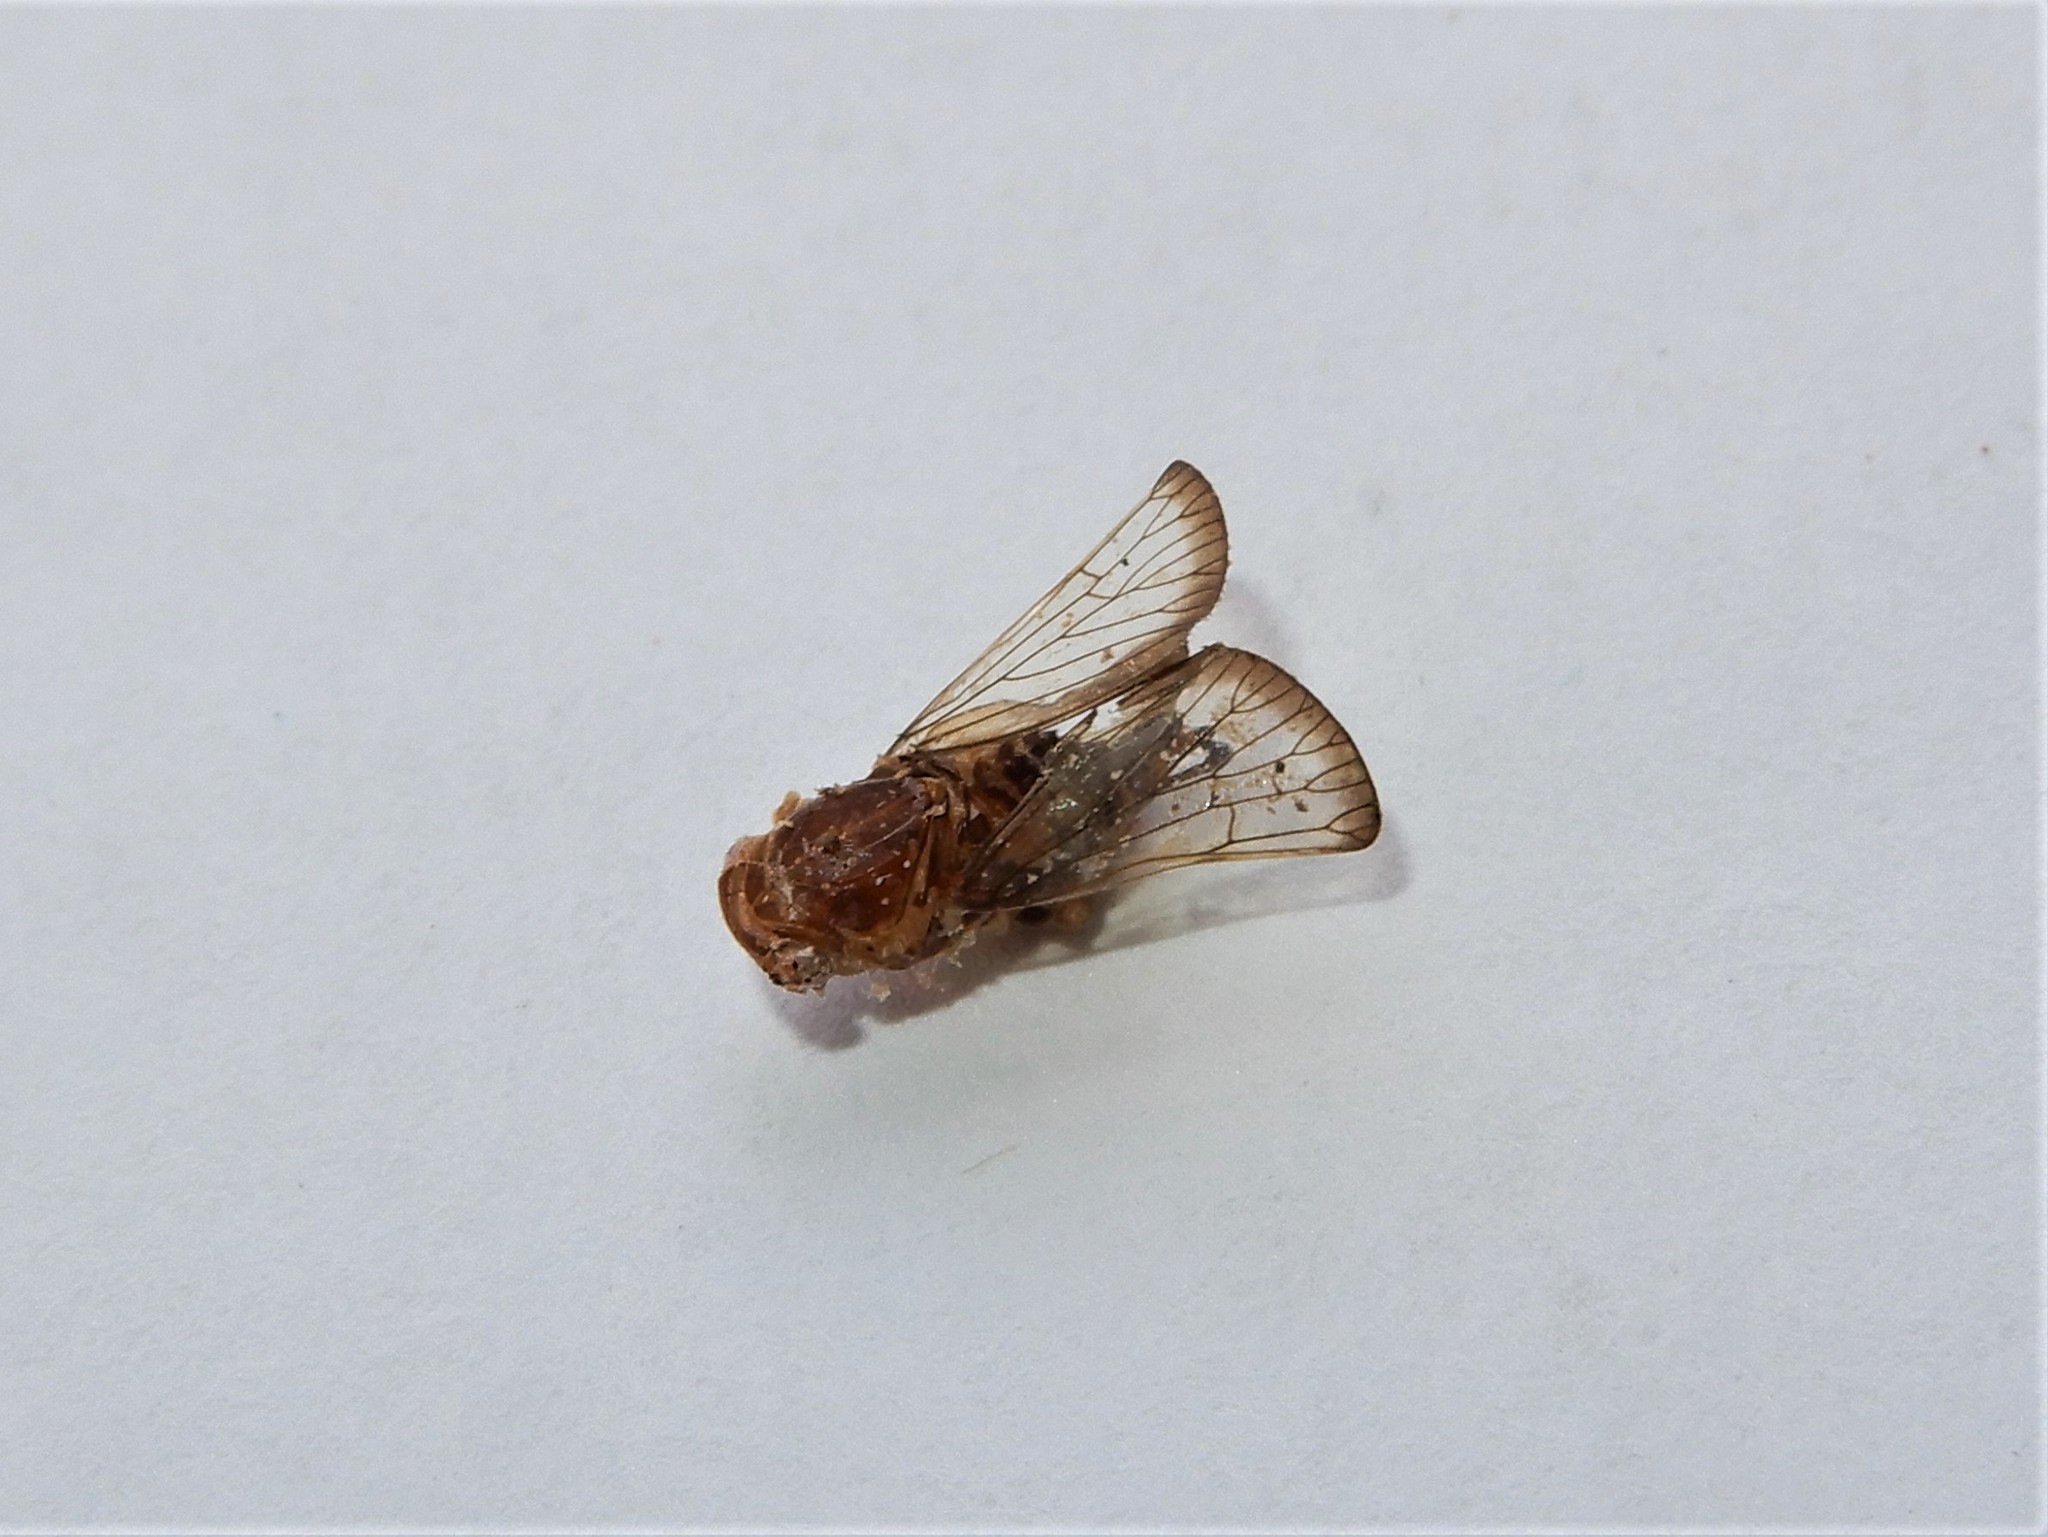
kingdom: Animalia
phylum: Arthropoda
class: Insecta
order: Hemiptera
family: Ricaniidae
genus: Scolypopa
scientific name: Scolypopa australis
